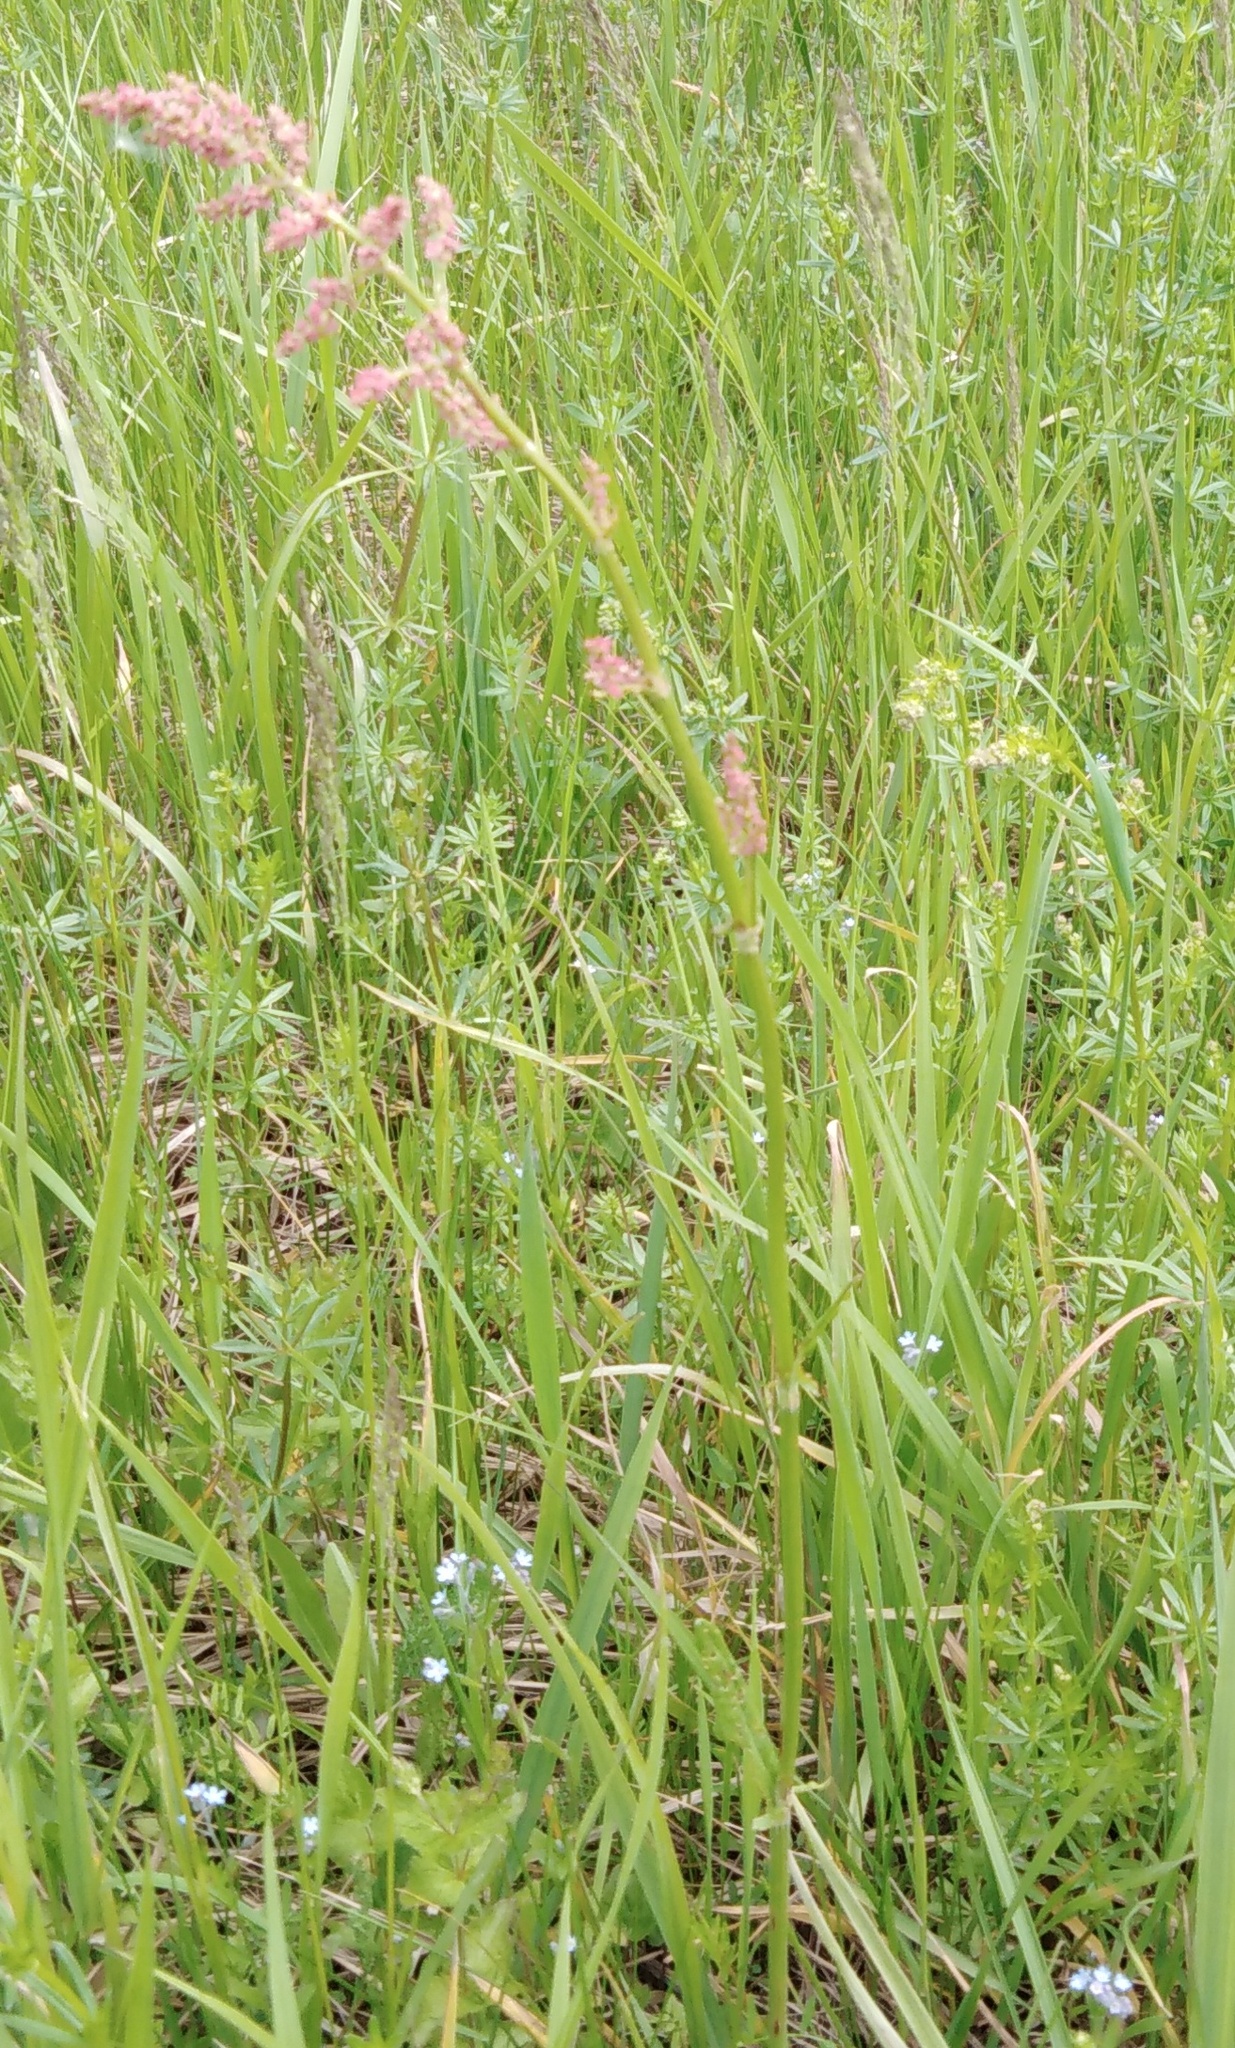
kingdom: Plantae
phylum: Tracheophyta
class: Magnoliopsida
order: Caryophyllales
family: Polygonaceae
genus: Rumex
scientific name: Rumex acetosa
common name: Garden sorrel
